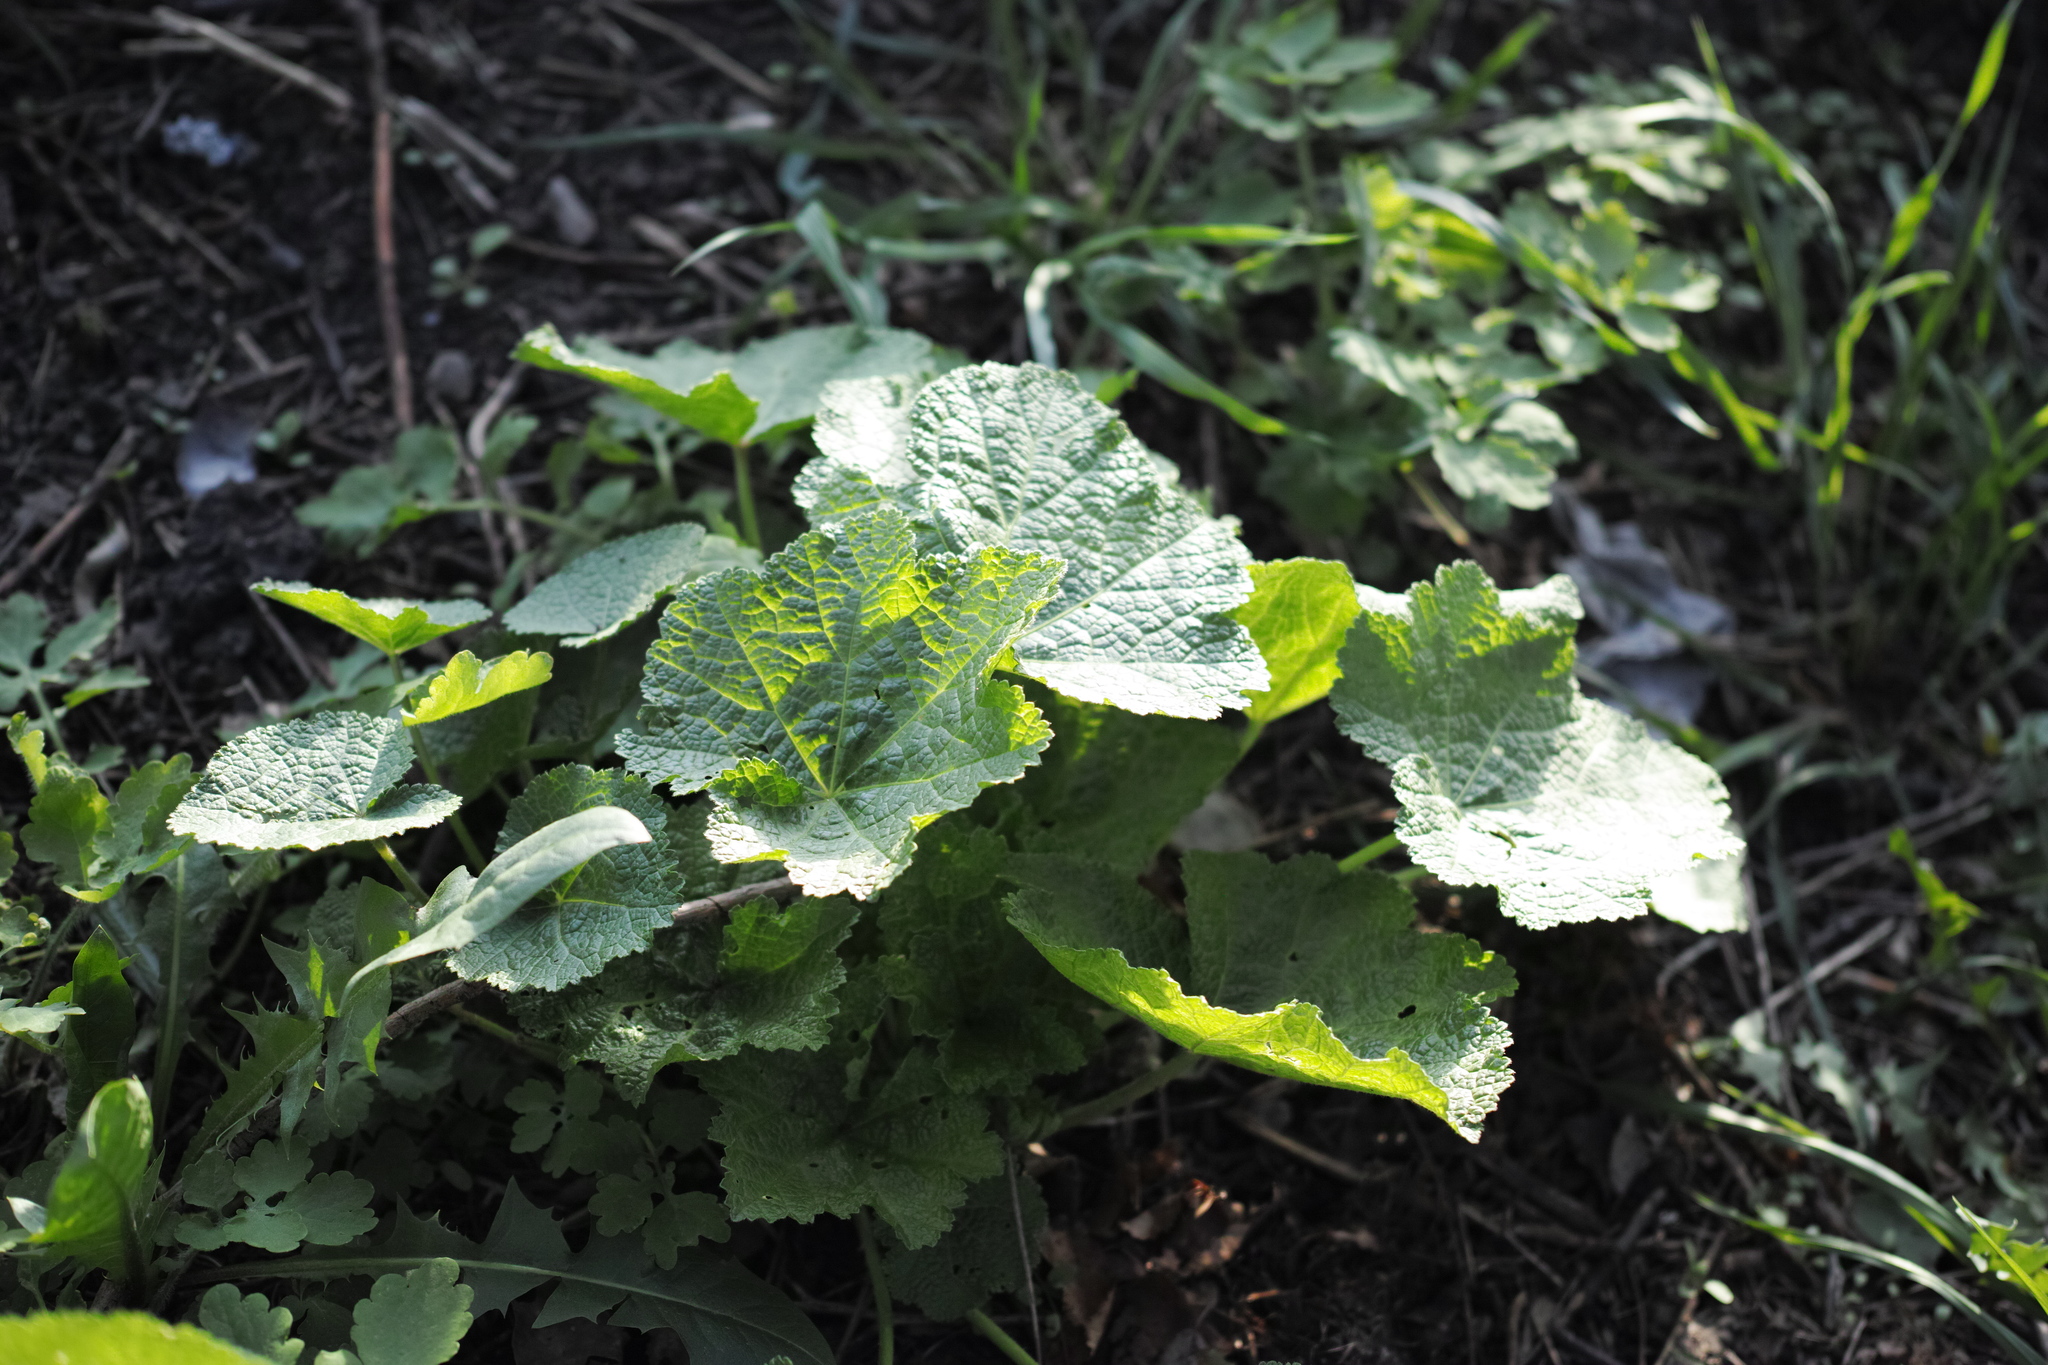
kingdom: Plantae
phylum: Tracheophyta
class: Magnoliopsida
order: Malvales
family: Malvaceae
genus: Alcea
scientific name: Alcea rosea
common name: Hollyhock
